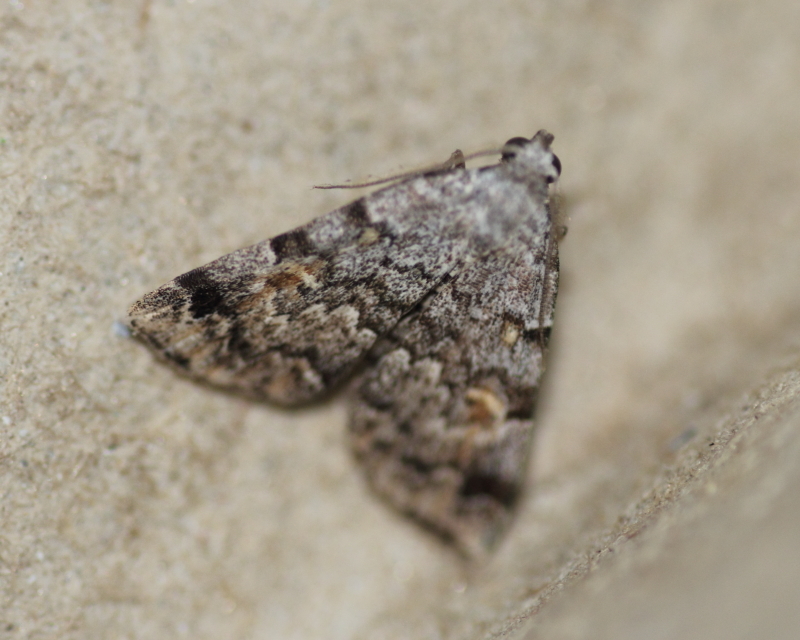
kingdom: Animalia
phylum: Arthropoda
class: Insecta
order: Lepidoptera
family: Erebidae
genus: Idia
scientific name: Idia americalis
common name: American idia moth
